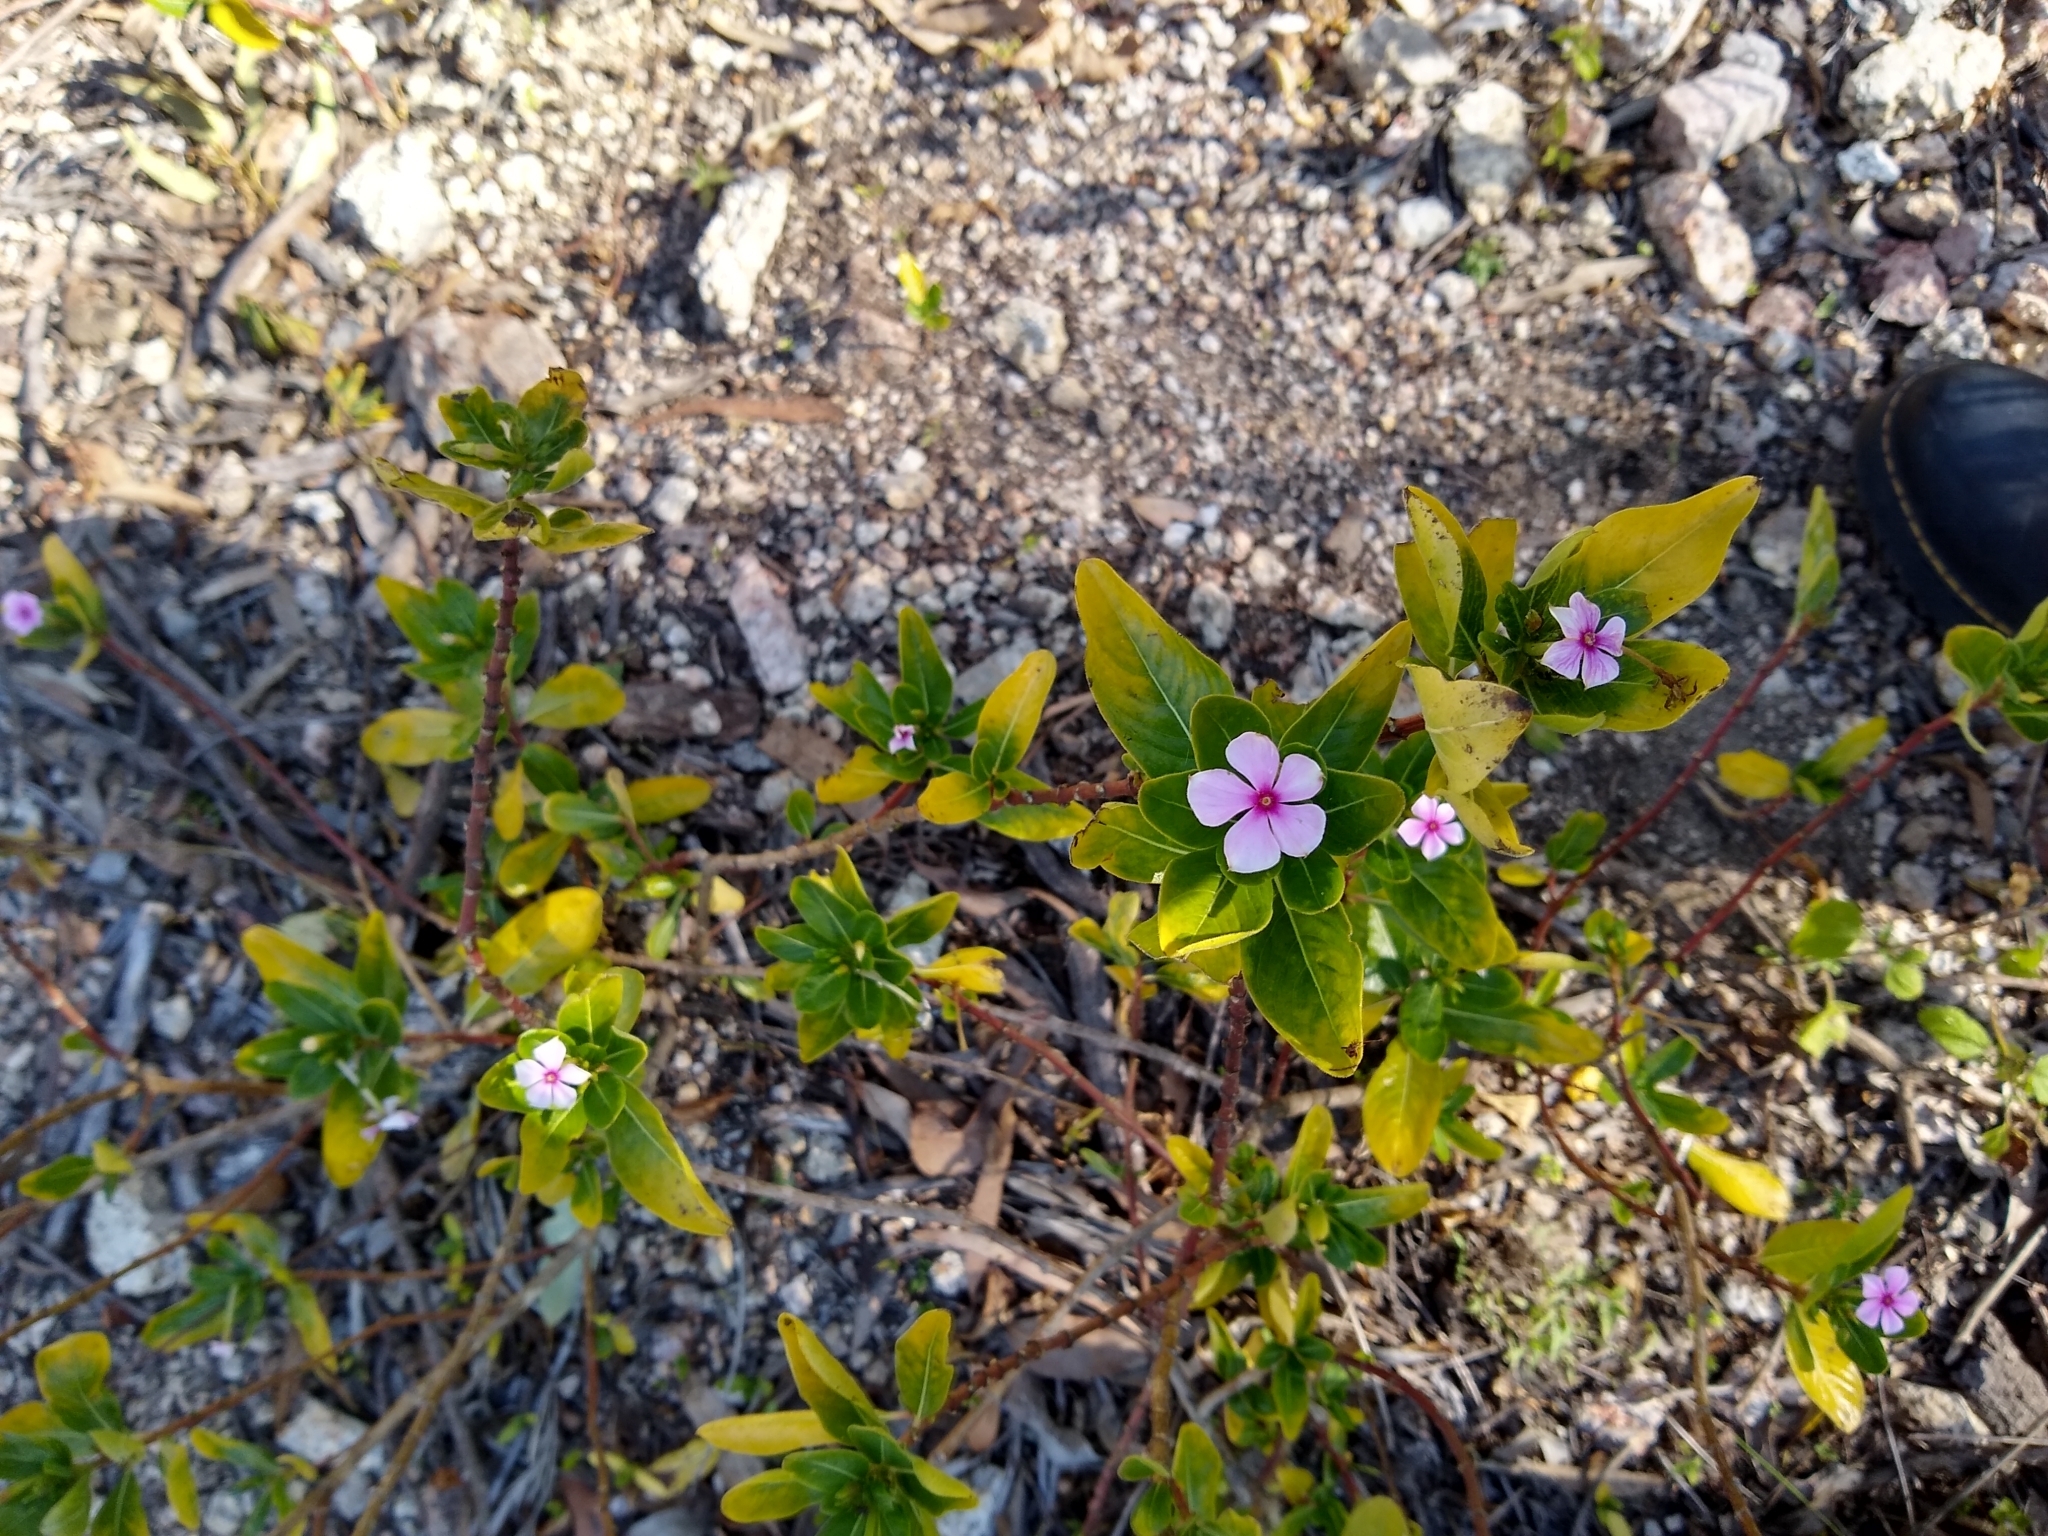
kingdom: Plantae
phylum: Tracheophyta
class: Magnoliopsida
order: Gentianales
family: Apocynaceae
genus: Catharanthus
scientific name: Catharanthus roseus
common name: Madagascar periwinkle
